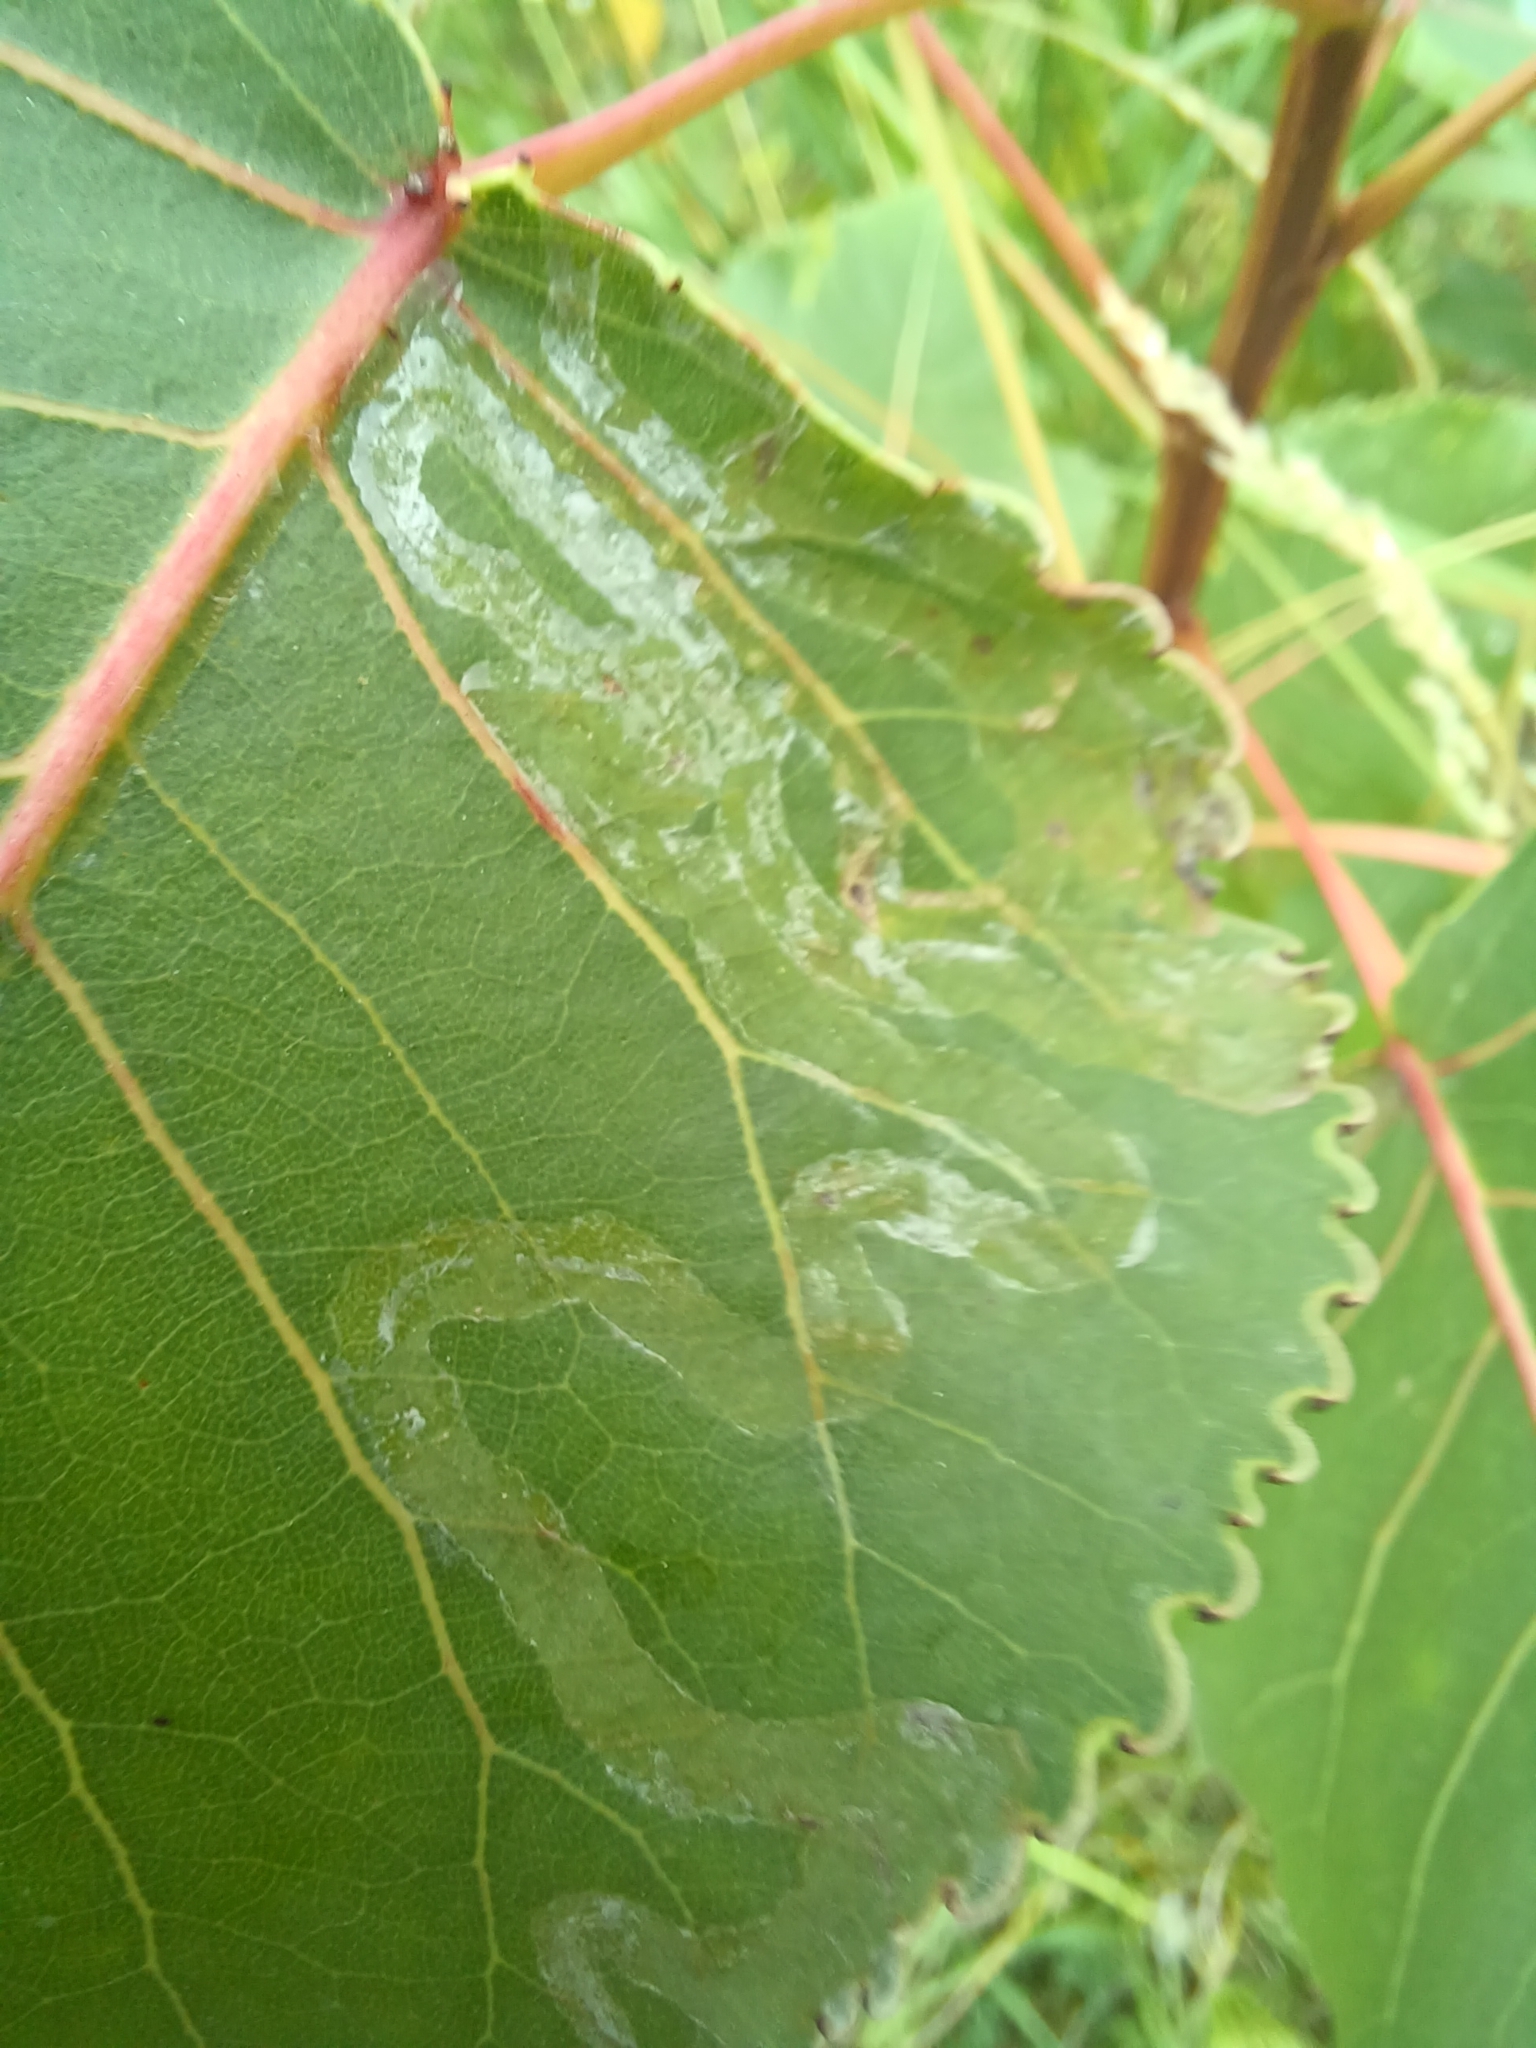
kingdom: Animalia
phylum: Arthropoda
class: Insecta
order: Lepidoptera
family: Gracillariidae
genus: Phyllocnistis
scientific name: Phyllocnistis populiella
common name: Aspen serpentine leafminer moth
